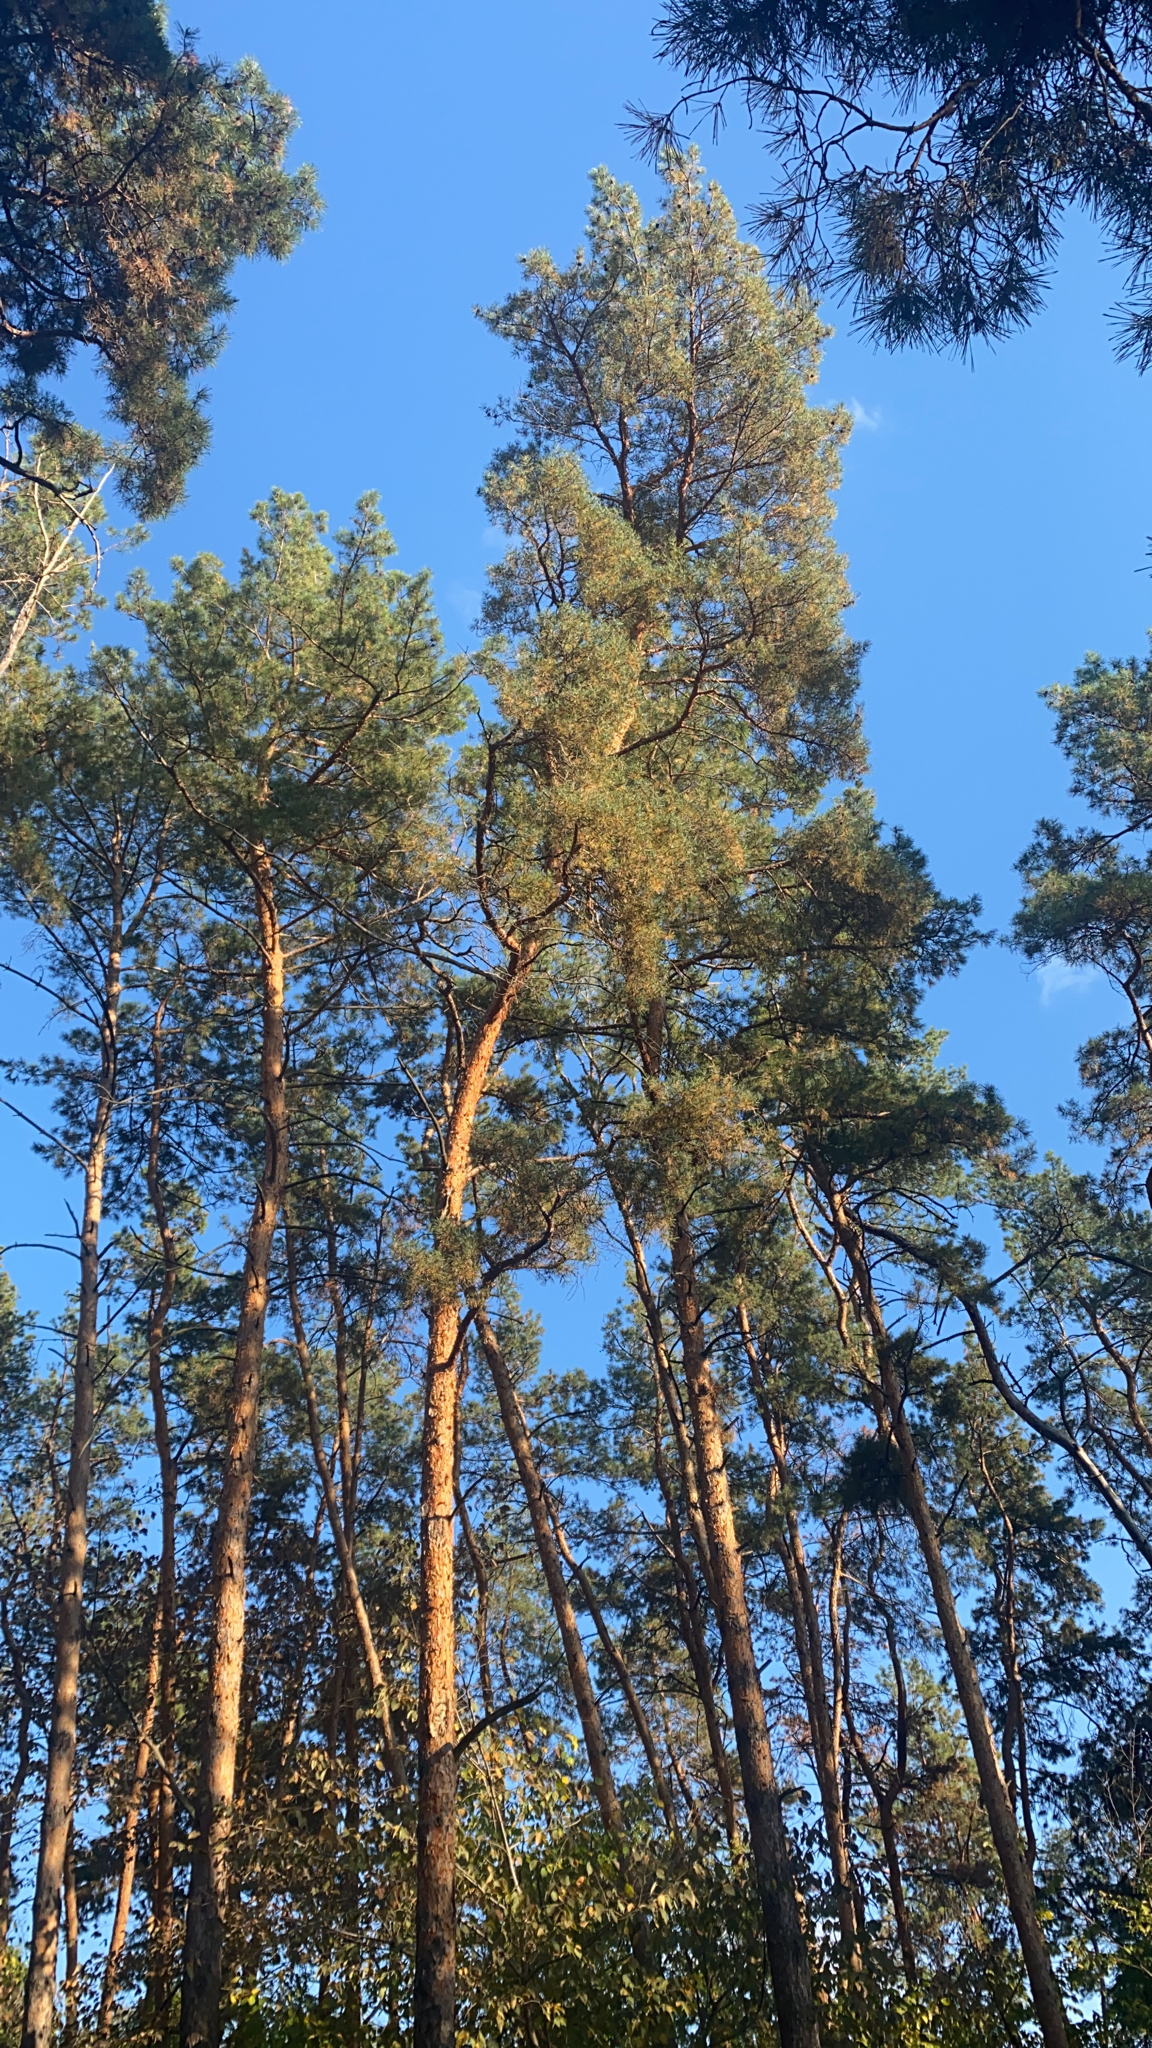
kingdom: Plantae
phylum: Tracheophyta
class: Pinopsida
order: Pinales
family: Pinaceae
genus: Pinus
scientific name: Pinus sylvestris
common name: Scots pine
